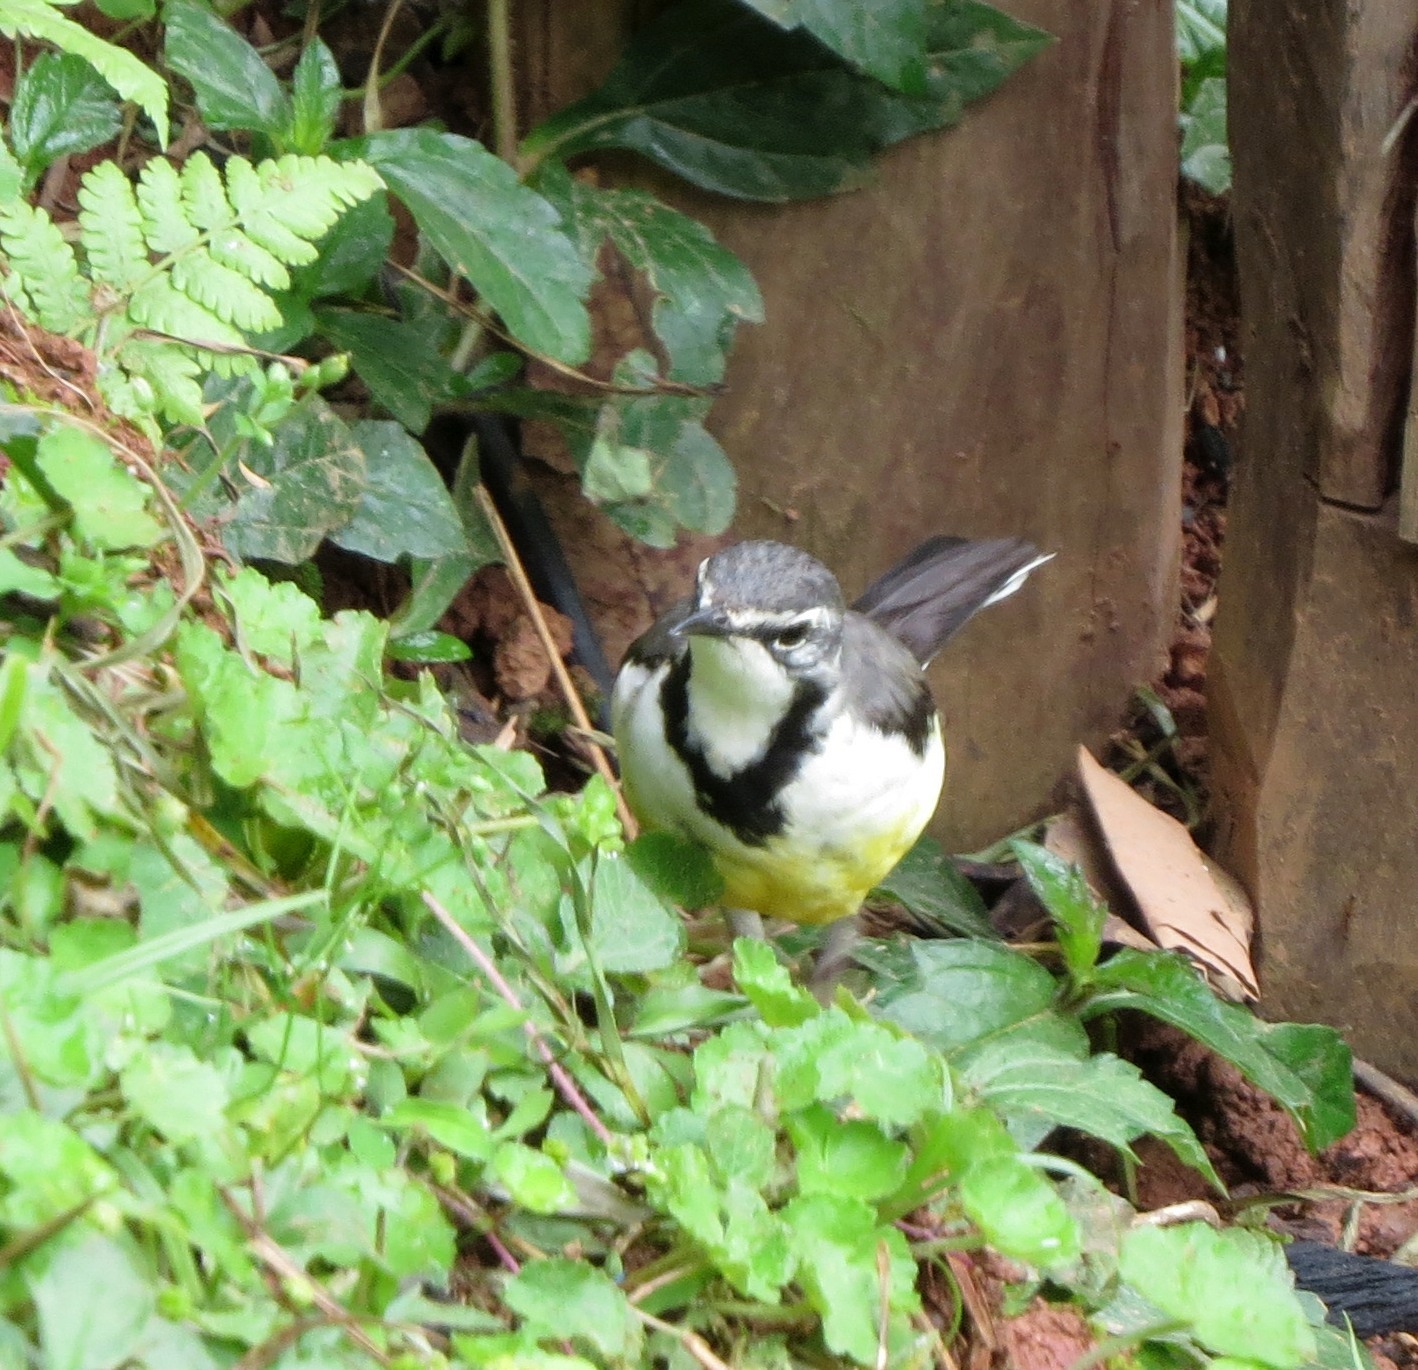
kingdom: Animalia
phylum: Chordata
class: Aves
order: Passeriformes
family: Motacillidae
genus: Motacilla
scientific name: Motacilla flaviventris
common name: Madagascar wagtail
